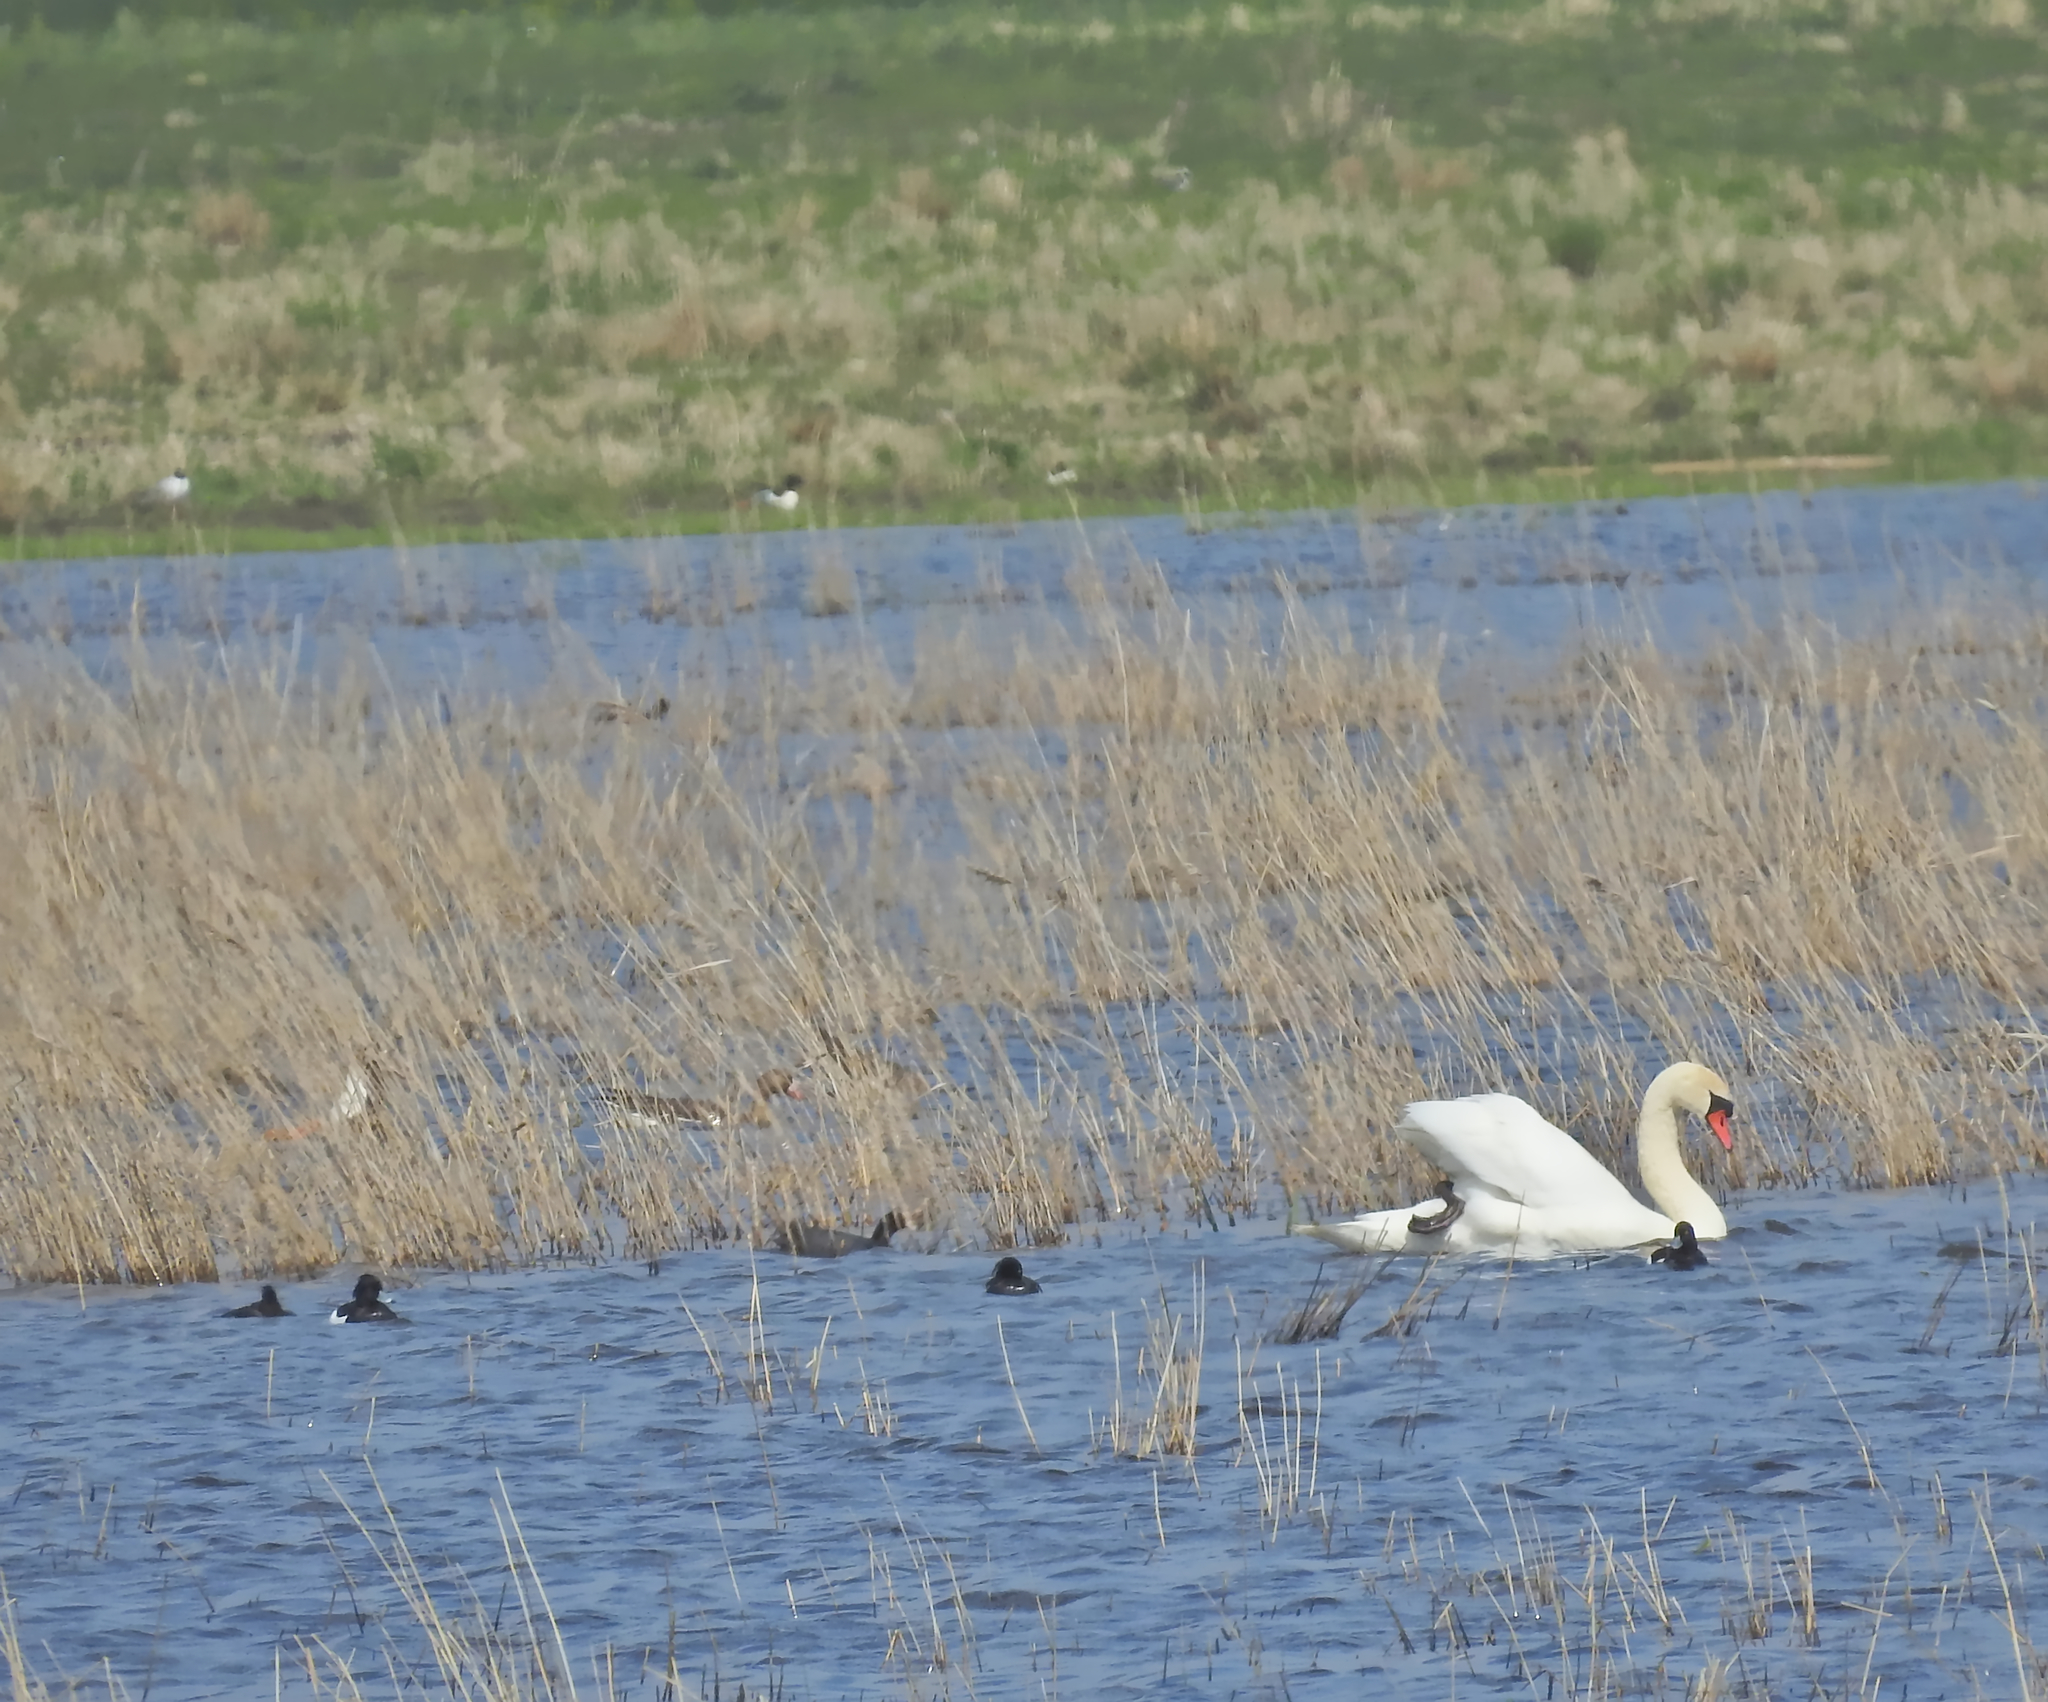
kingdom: Animalia
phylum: Chordata
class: Aves
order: Anseriformes
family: Anatidae
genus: Cygnus
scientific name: Cygnus olor
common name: Mute swan
